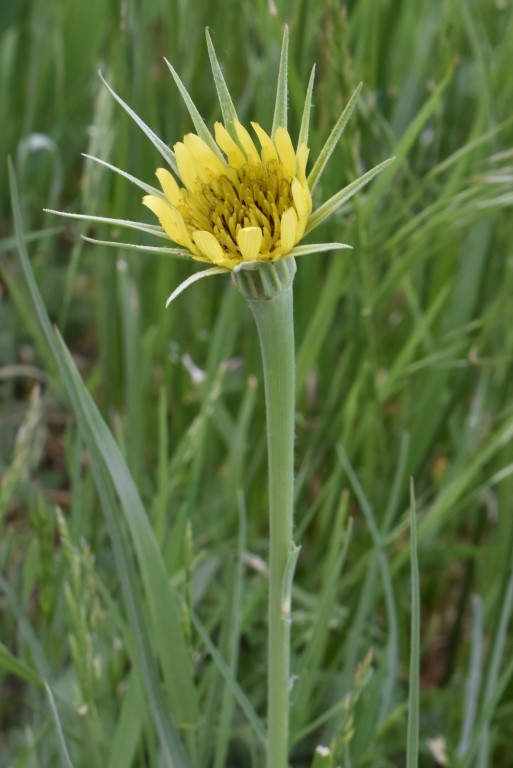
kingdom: Plantae
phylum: Tracheophyta
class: Magnoliopsida
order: Asterales
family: Asteraceae
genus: Tragopogon
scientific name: Tragopogon dubius
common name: Yellow salsify
